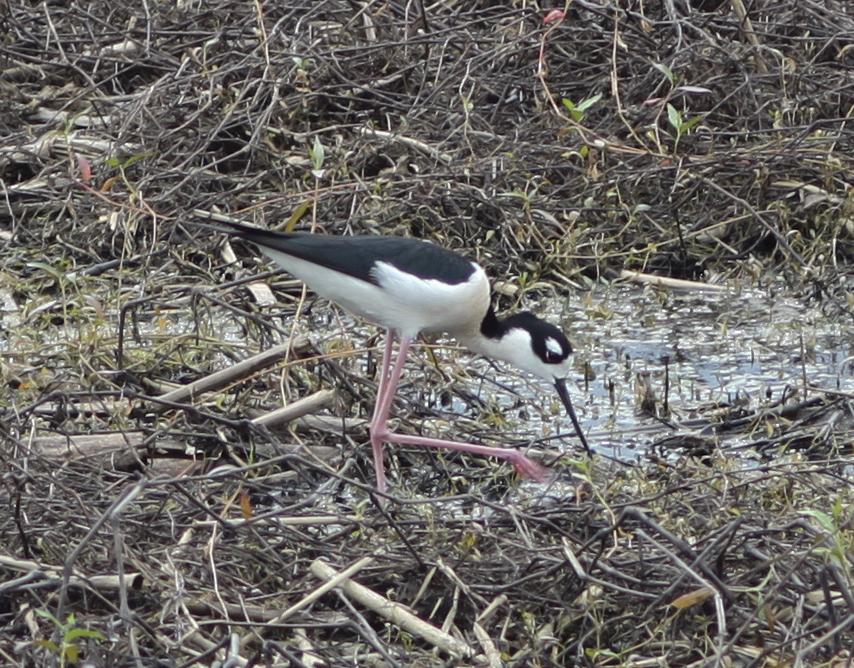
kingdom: Animalia
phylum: Chordata
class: Aves
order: Charadriiformes
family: Recurvirostridae
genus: Himantopus
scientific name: Himantopus mexicanus
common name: Black-necked stilt
